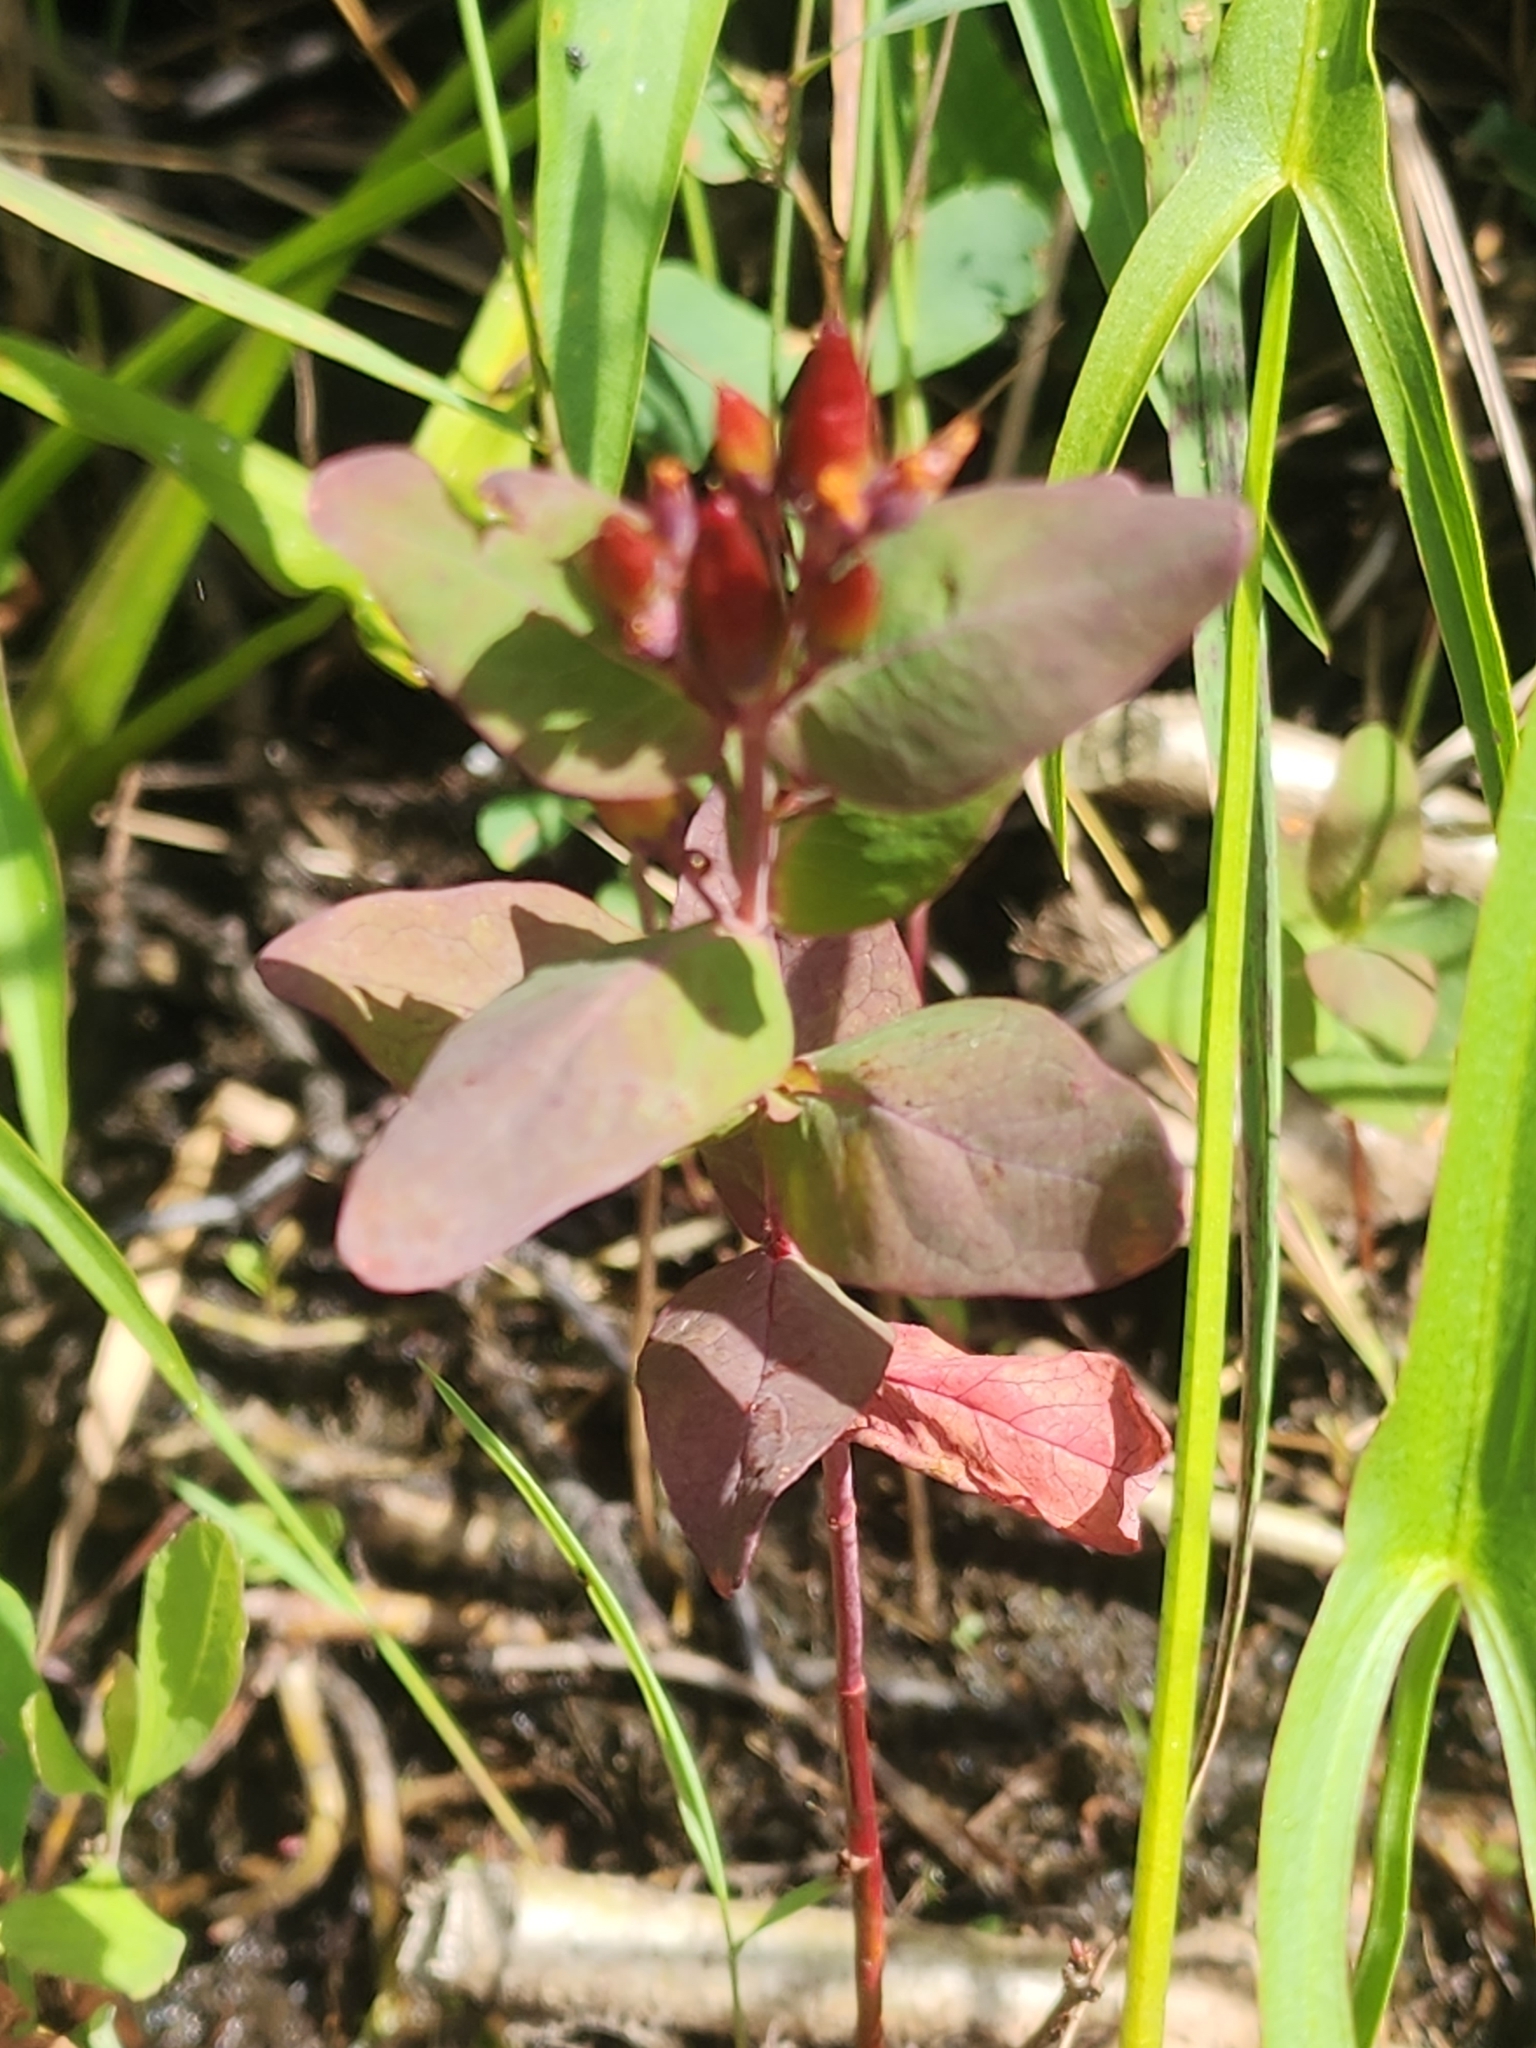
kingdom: Plantae
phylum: Tracheophyta
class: Magnoliopsida
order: Malpighiales
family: Hypericaceae
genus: Triadenum
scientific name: Triadenum fraseri
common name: Fraser's marsh st. johnswort
